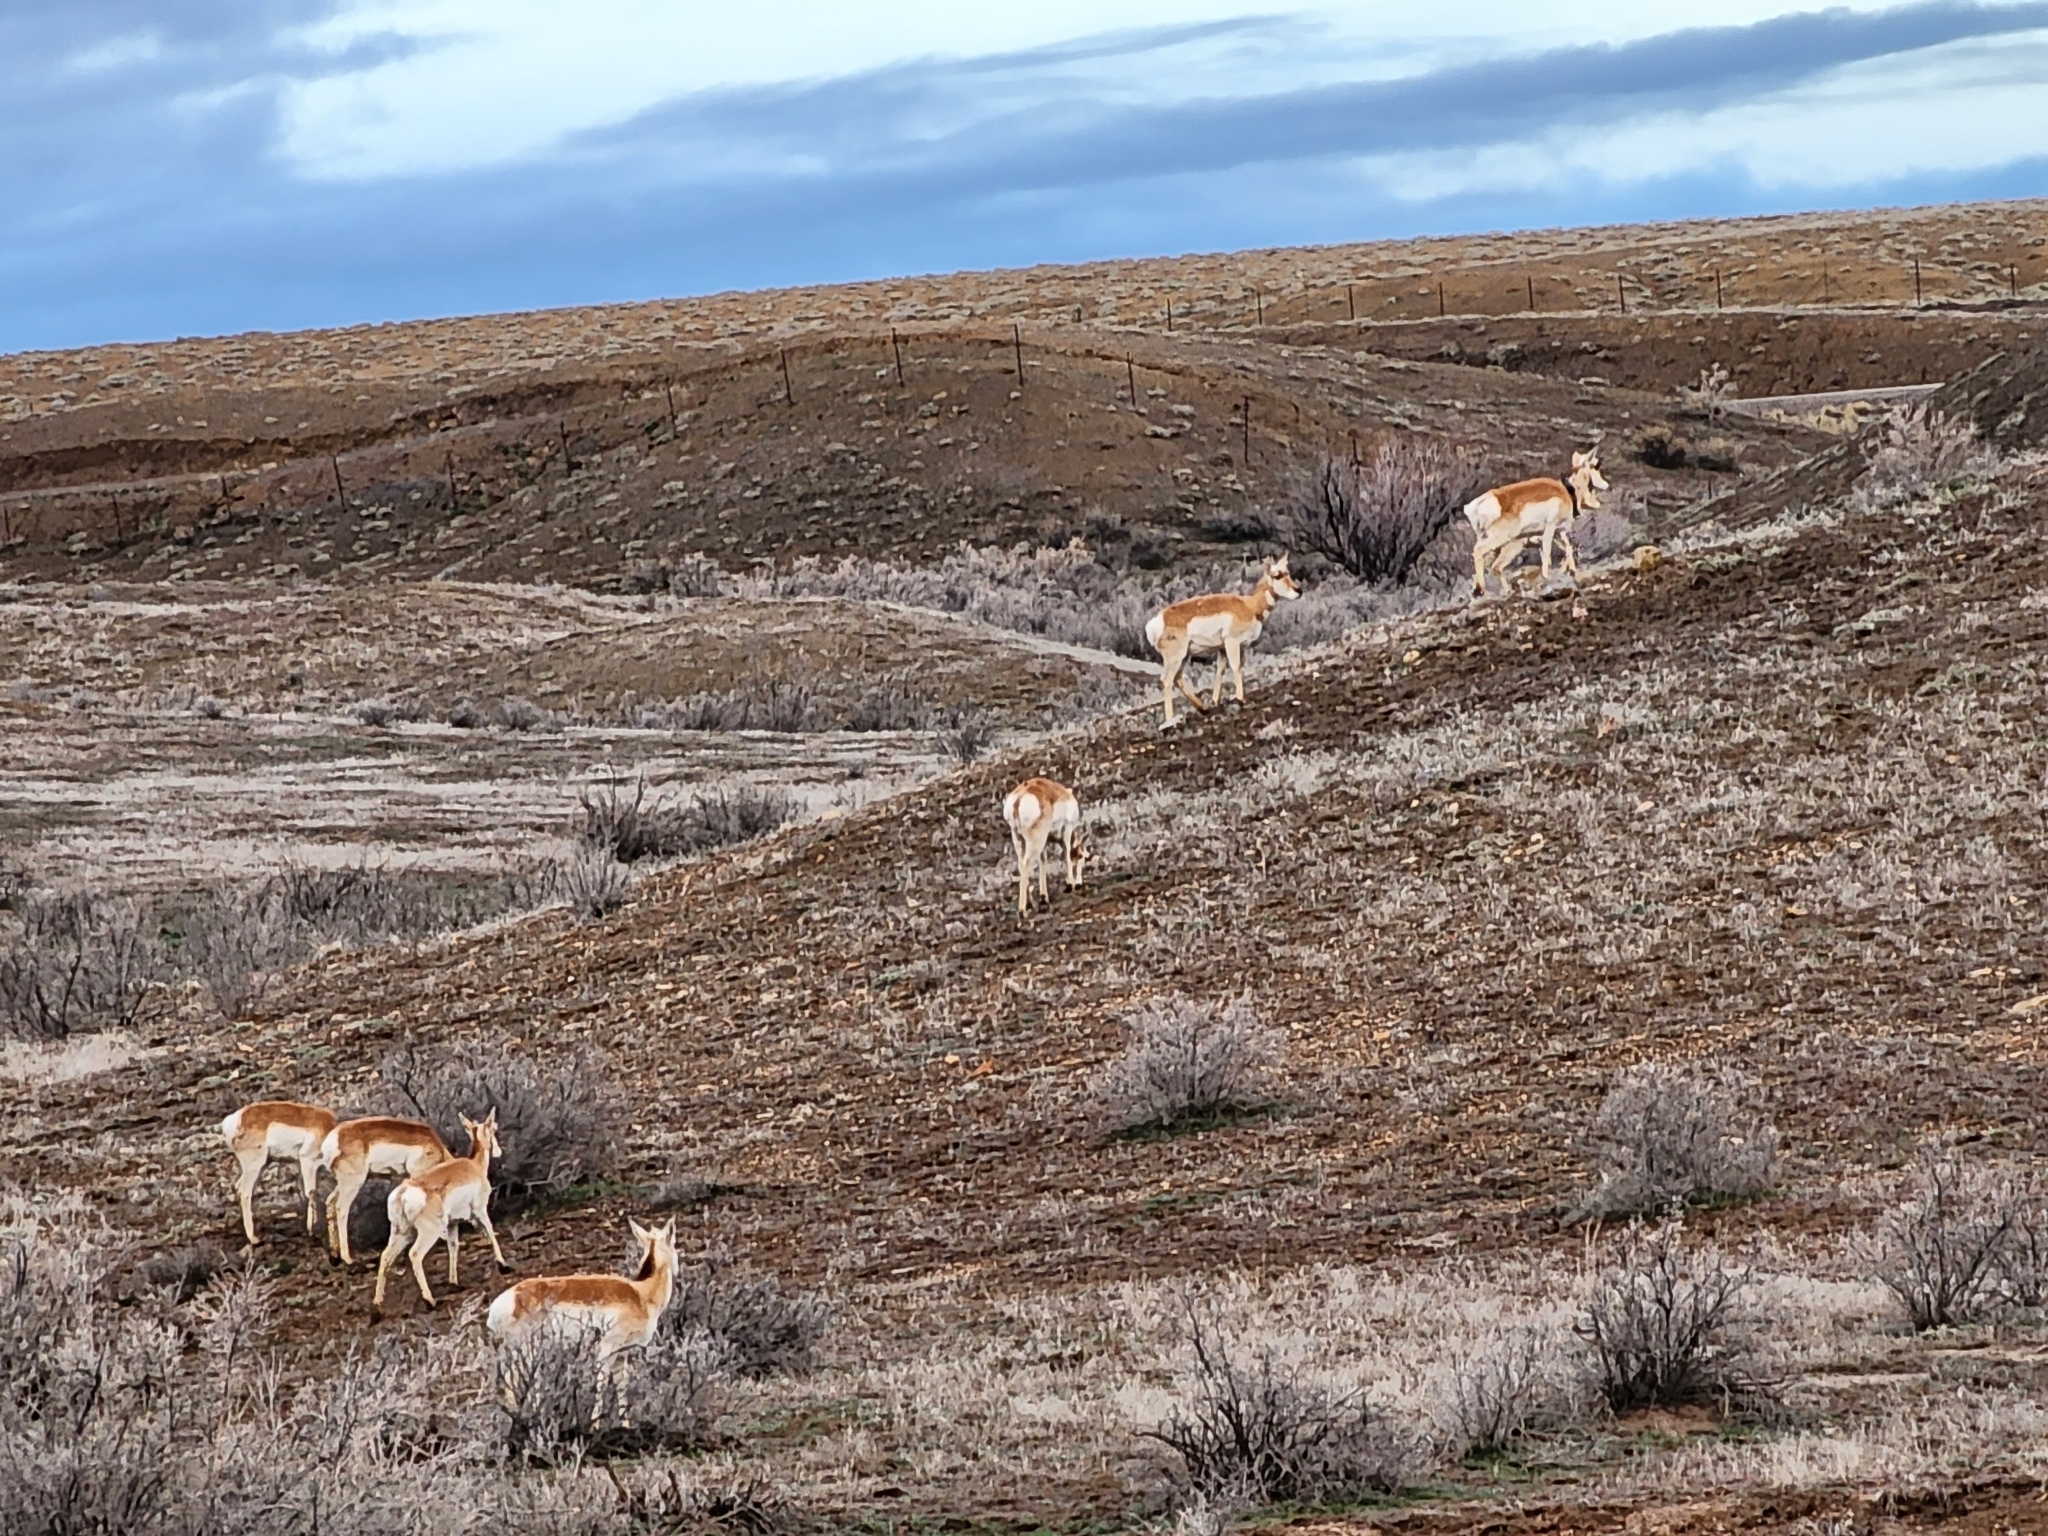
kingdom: Animalia
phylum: Chordata
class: Mammalia
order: Artiodactyla
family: Antilocapridae
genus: Antilocapra
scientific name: Antilocapra americana
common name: Pronghorn
